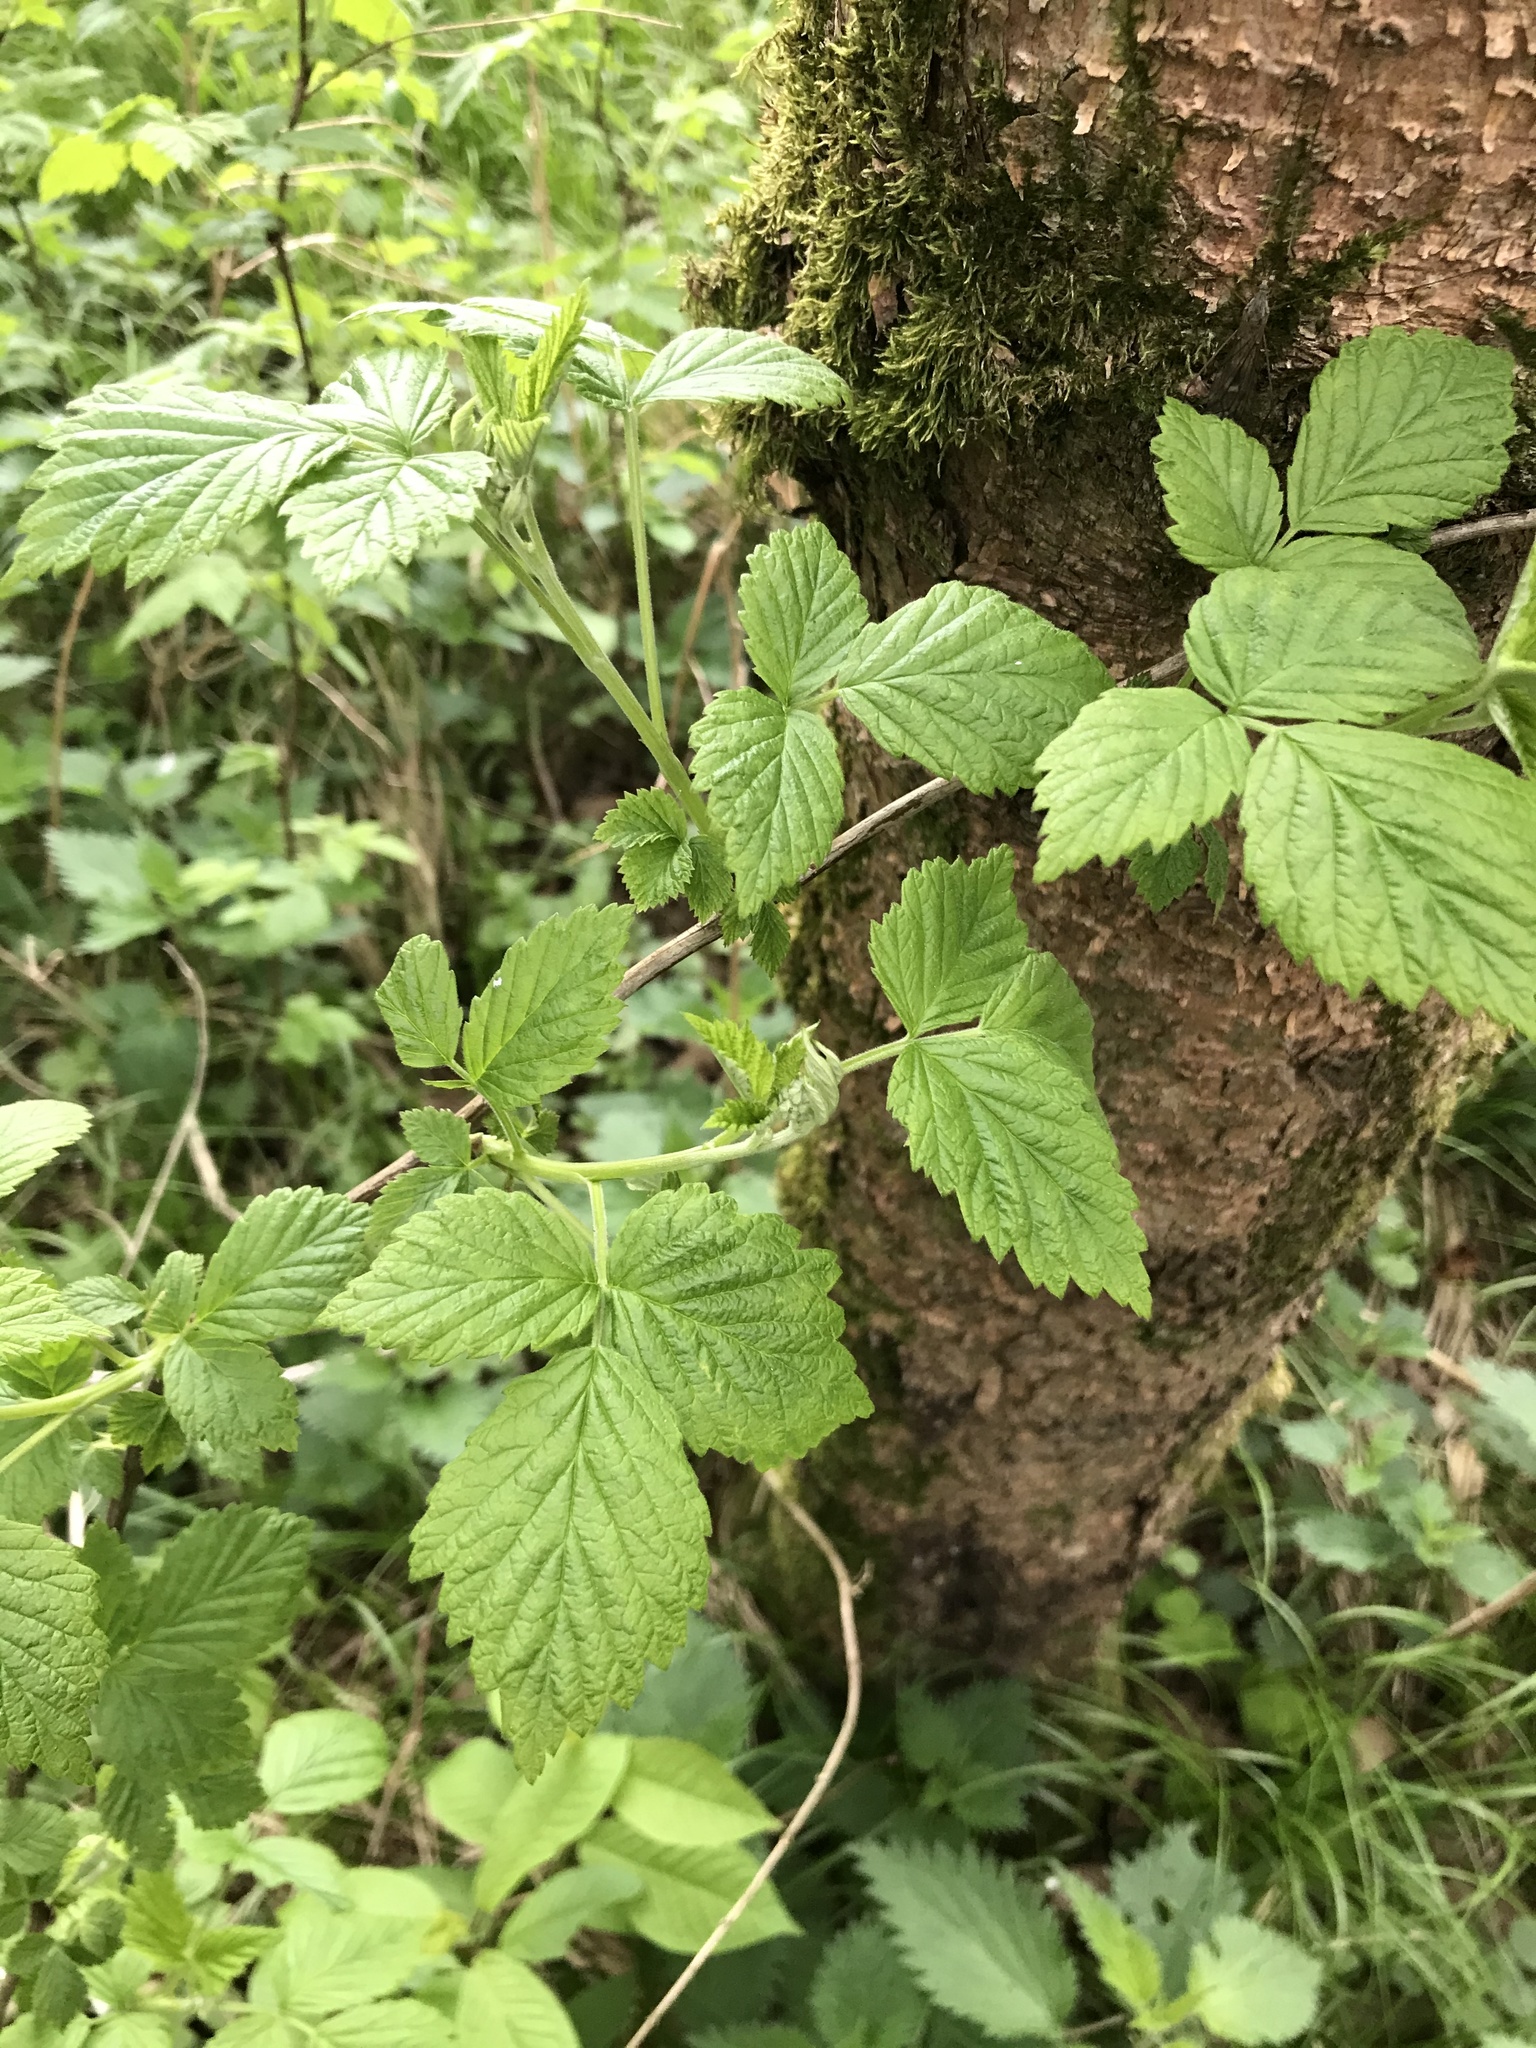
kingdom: Plantae
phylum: Tracheophyta
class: Magnoliopsida
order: Rosales
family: Rosaceae
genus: Rubus
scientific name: Rubus idaeus
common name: Raspberry
